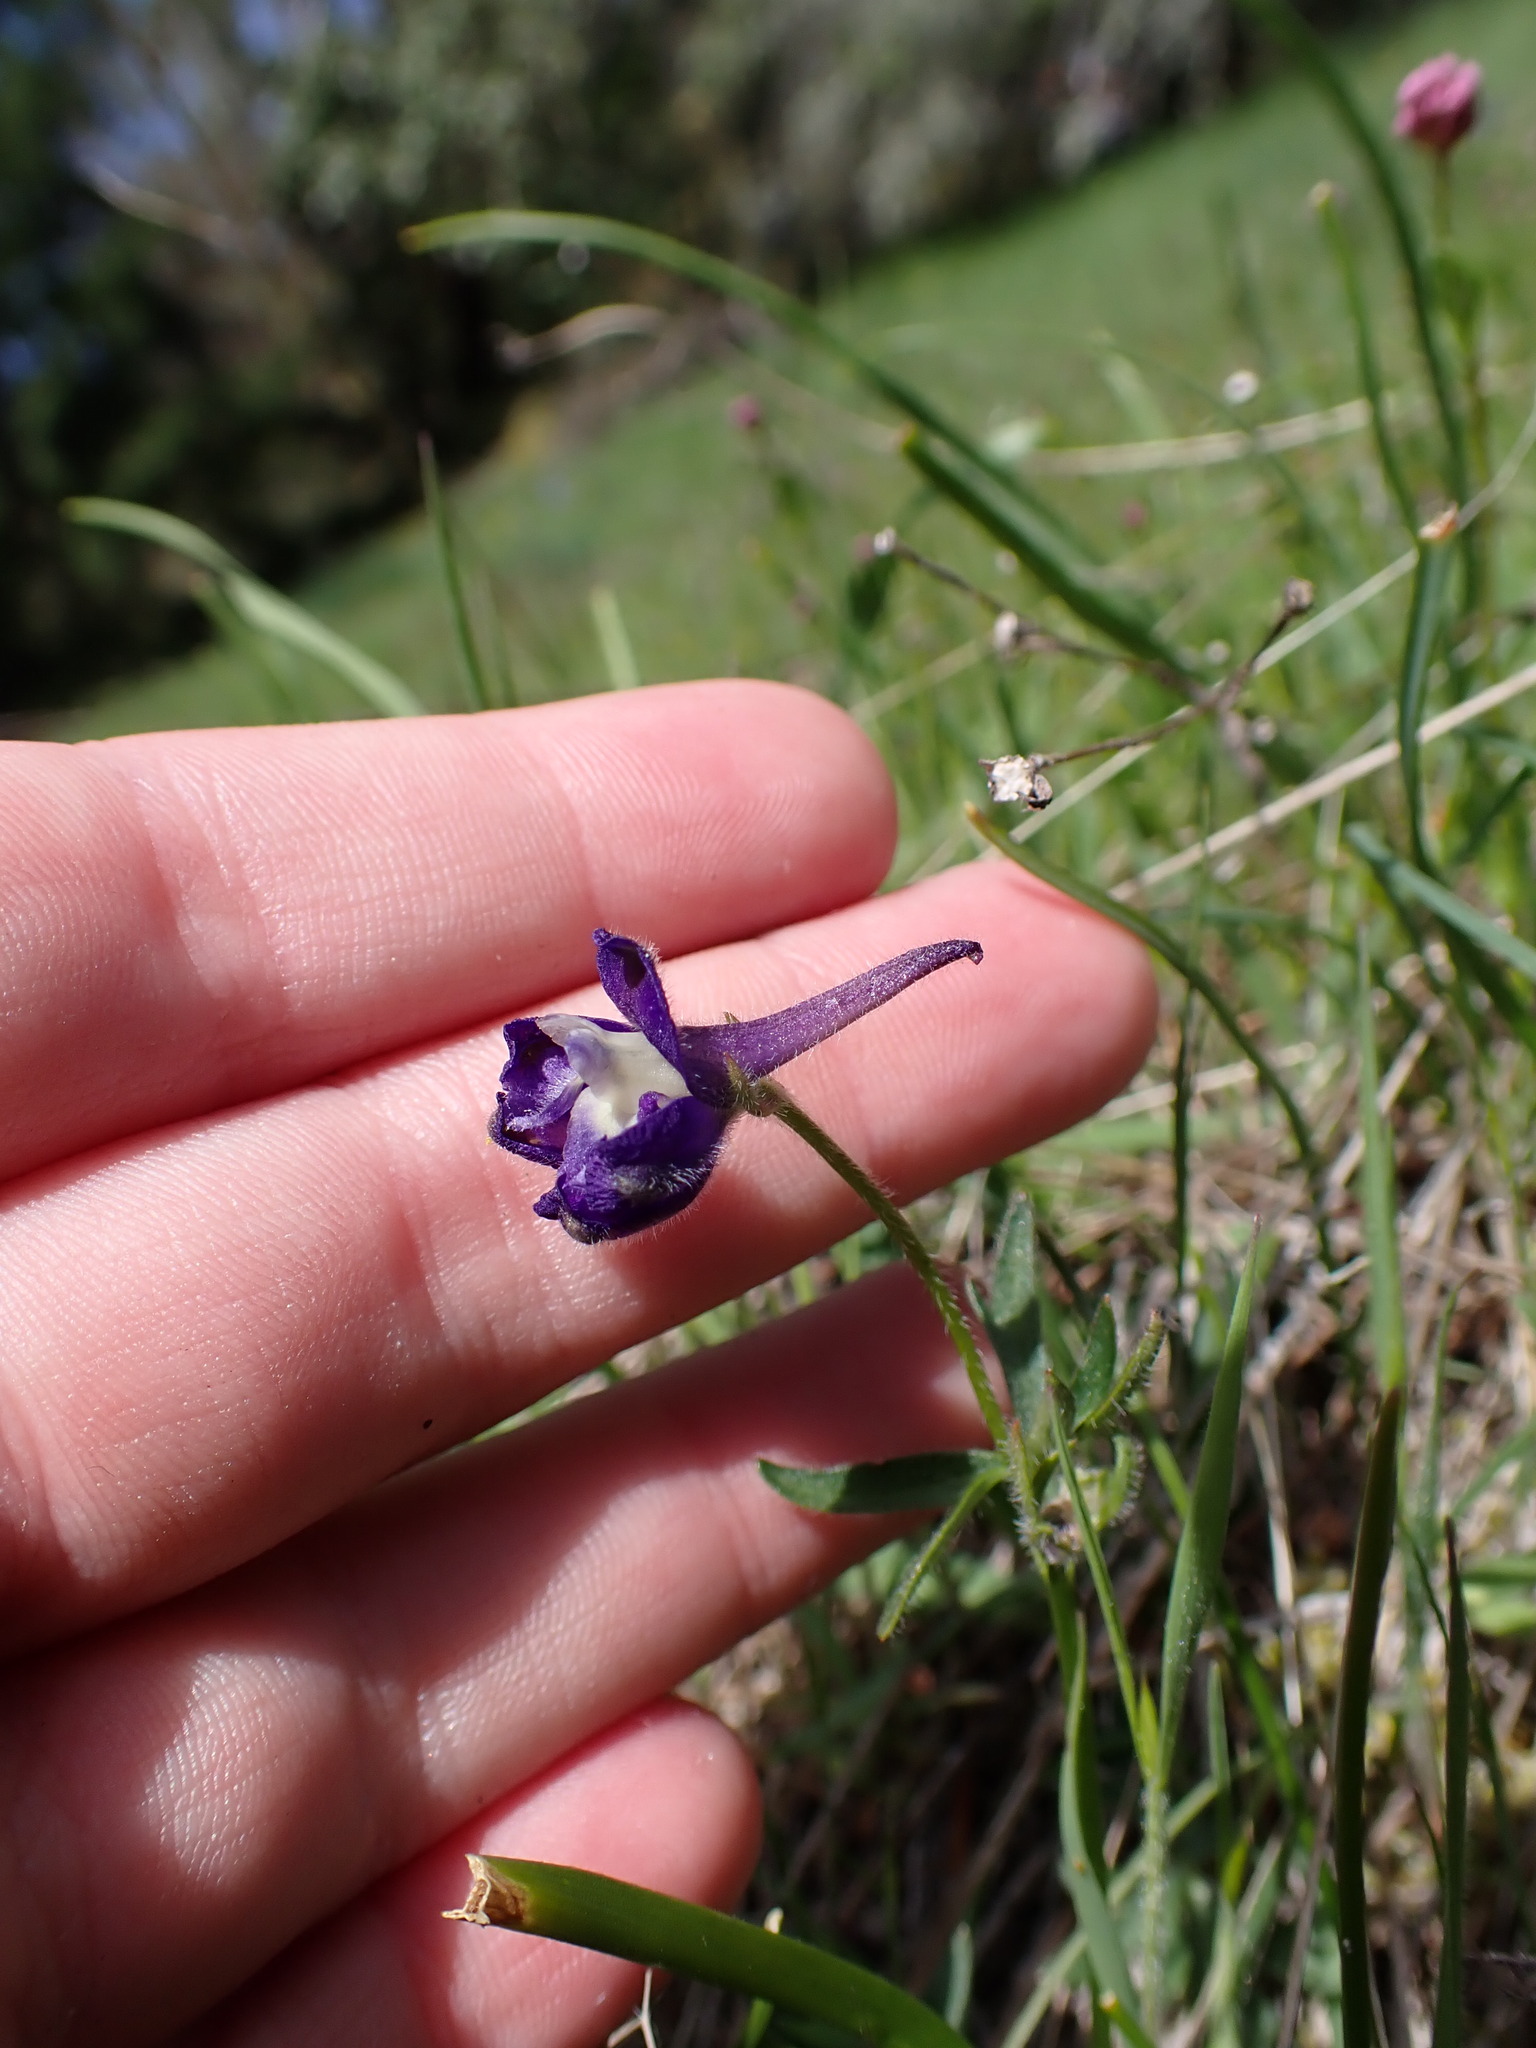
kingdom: Plantae
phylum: Tracheophyta
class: Magnoliopsida
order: Ranunculales
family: Ranunculaceae
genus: Delphinium
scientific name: Delphinium menziesii
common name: Menzies's larkspur
